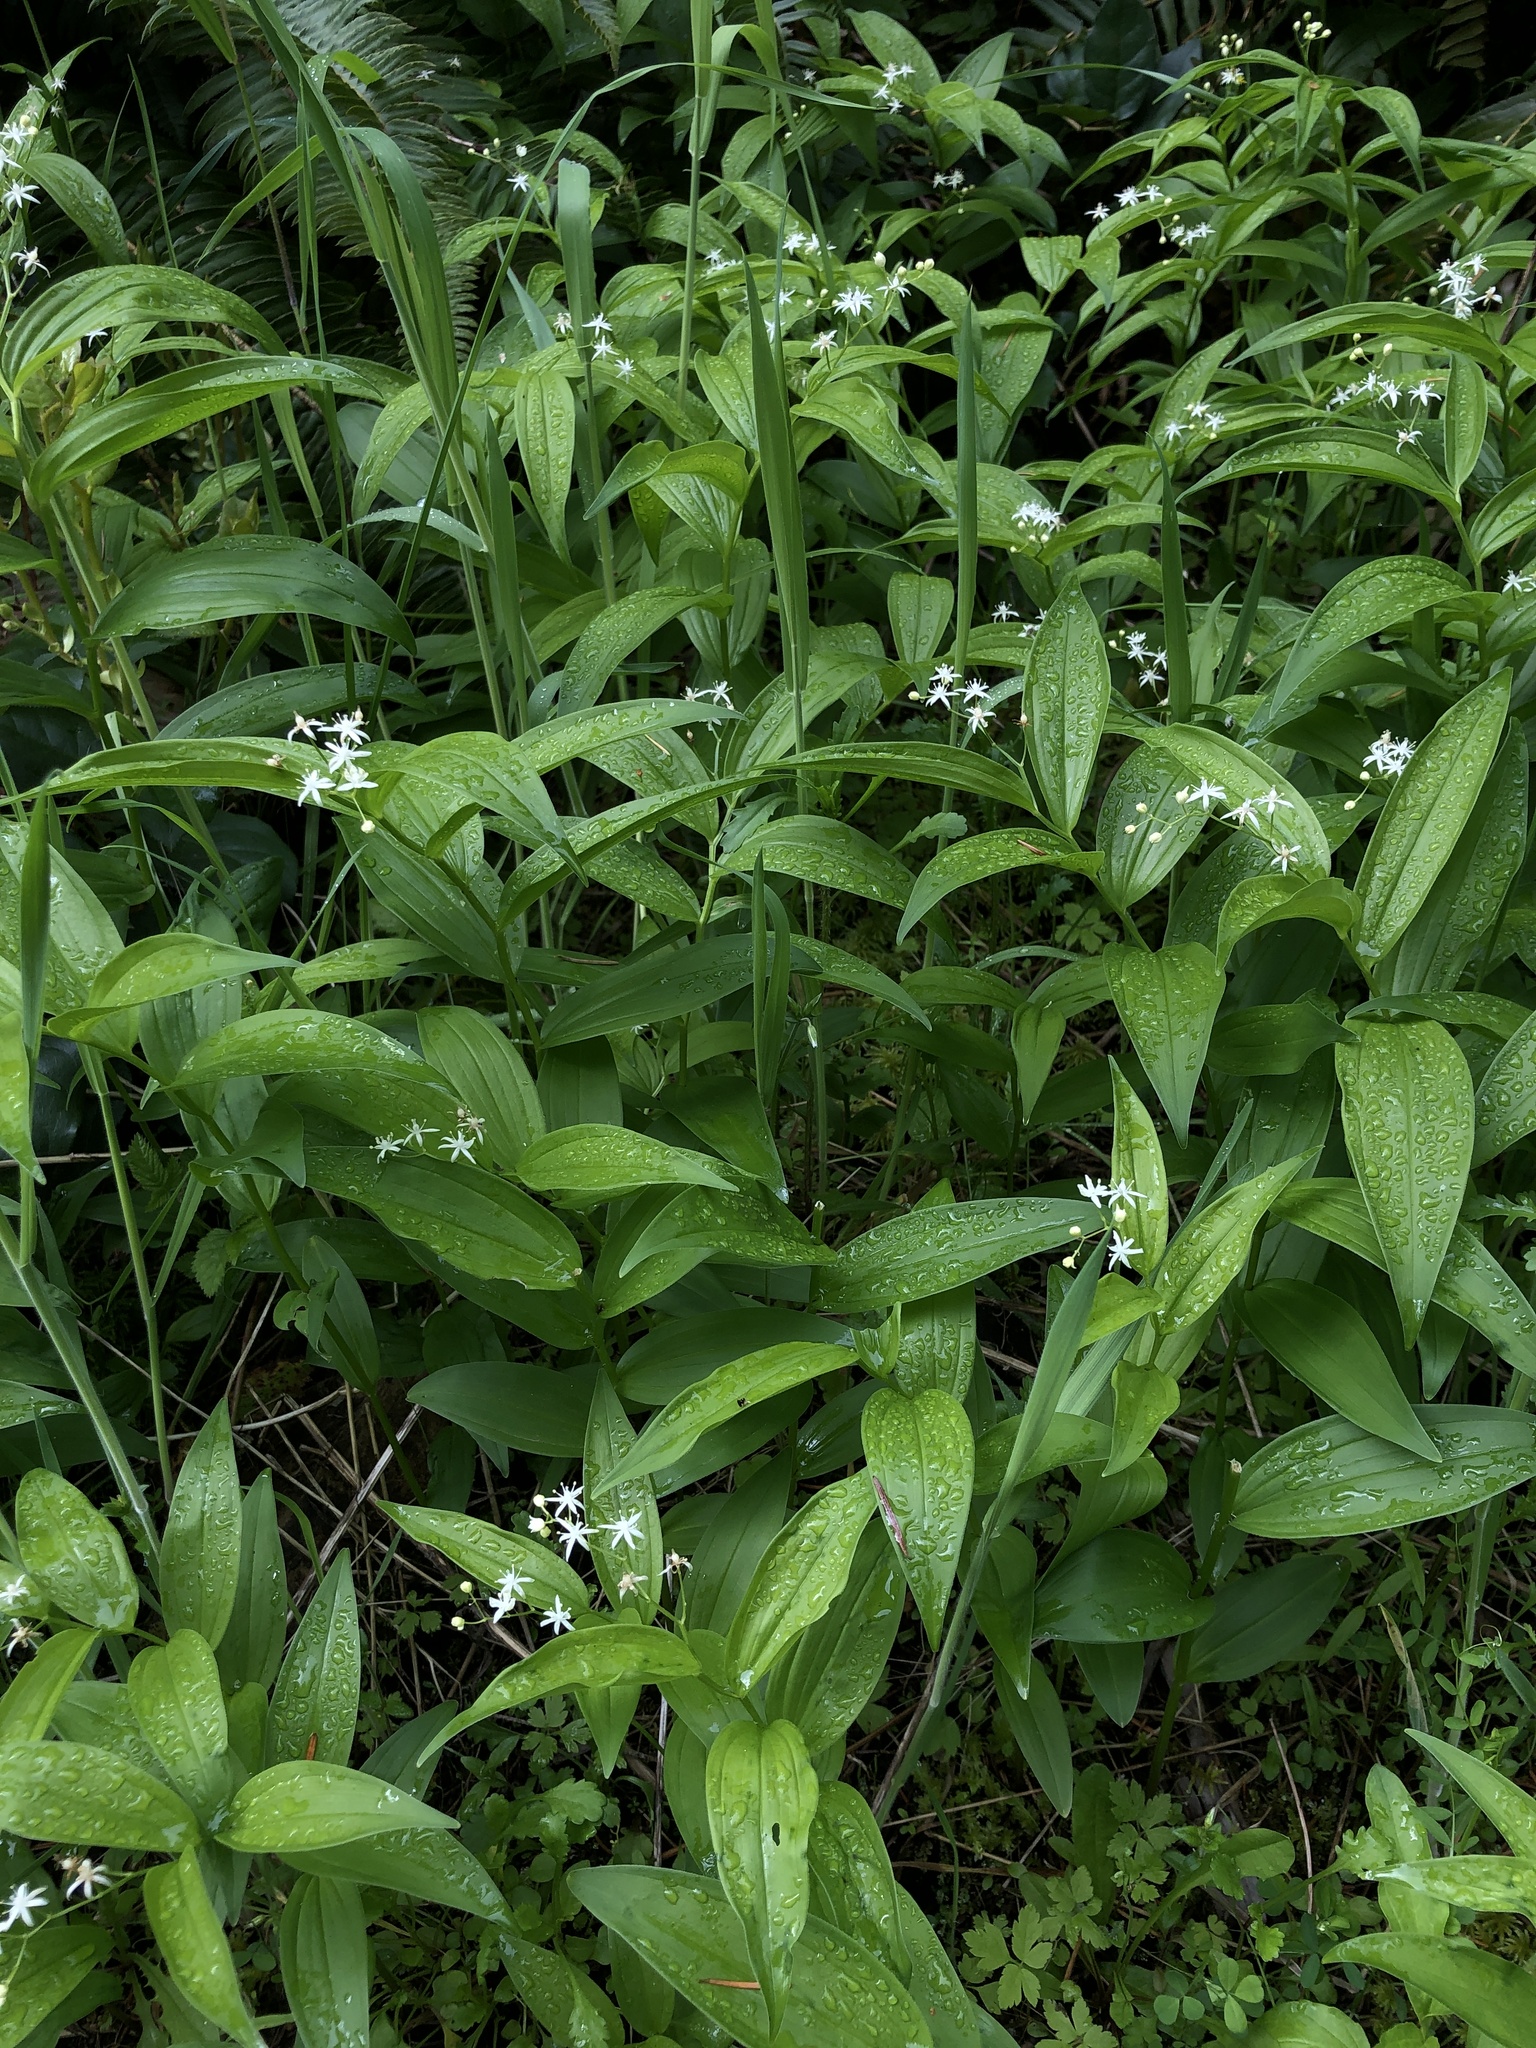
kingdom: Plantae
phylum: Tracheophyta
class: Liliopsida
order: Asparagales
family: Asparagaceae
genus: Maianthemum
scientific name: Maianthemum stellatum
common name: Little false solomon's seal
